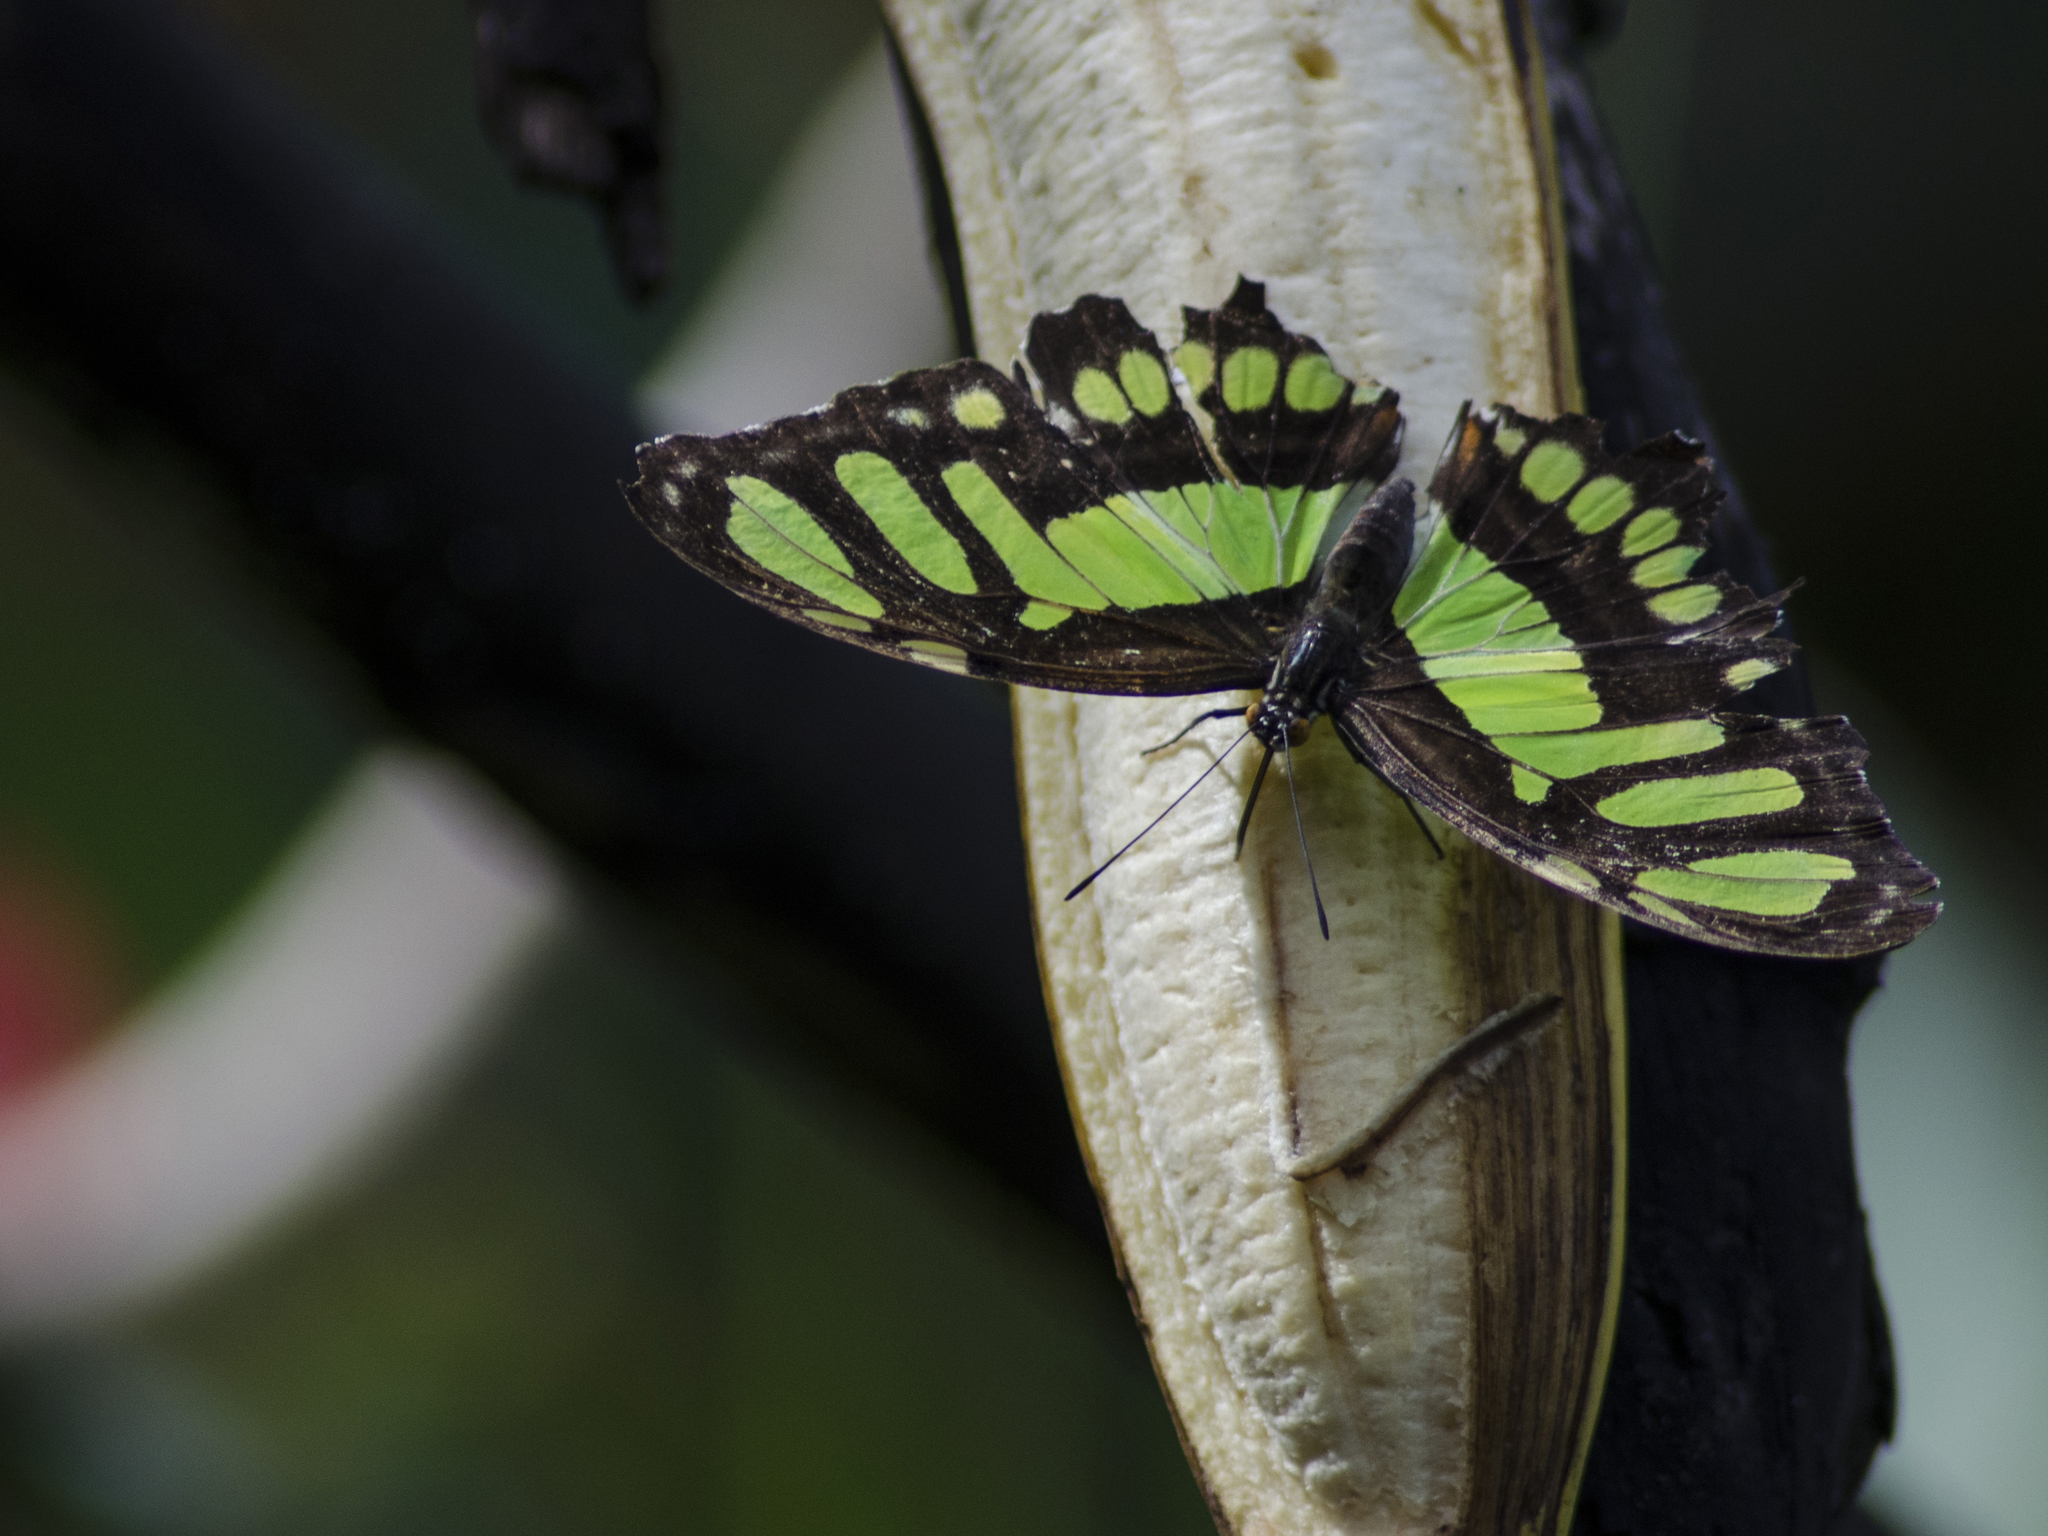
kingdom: Animalia
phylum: Arthropoda
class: Insecta
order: Lepidoptera
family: Nymphalidae
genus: Siproeta
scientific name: Siproeta stelenes
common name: Malachite
